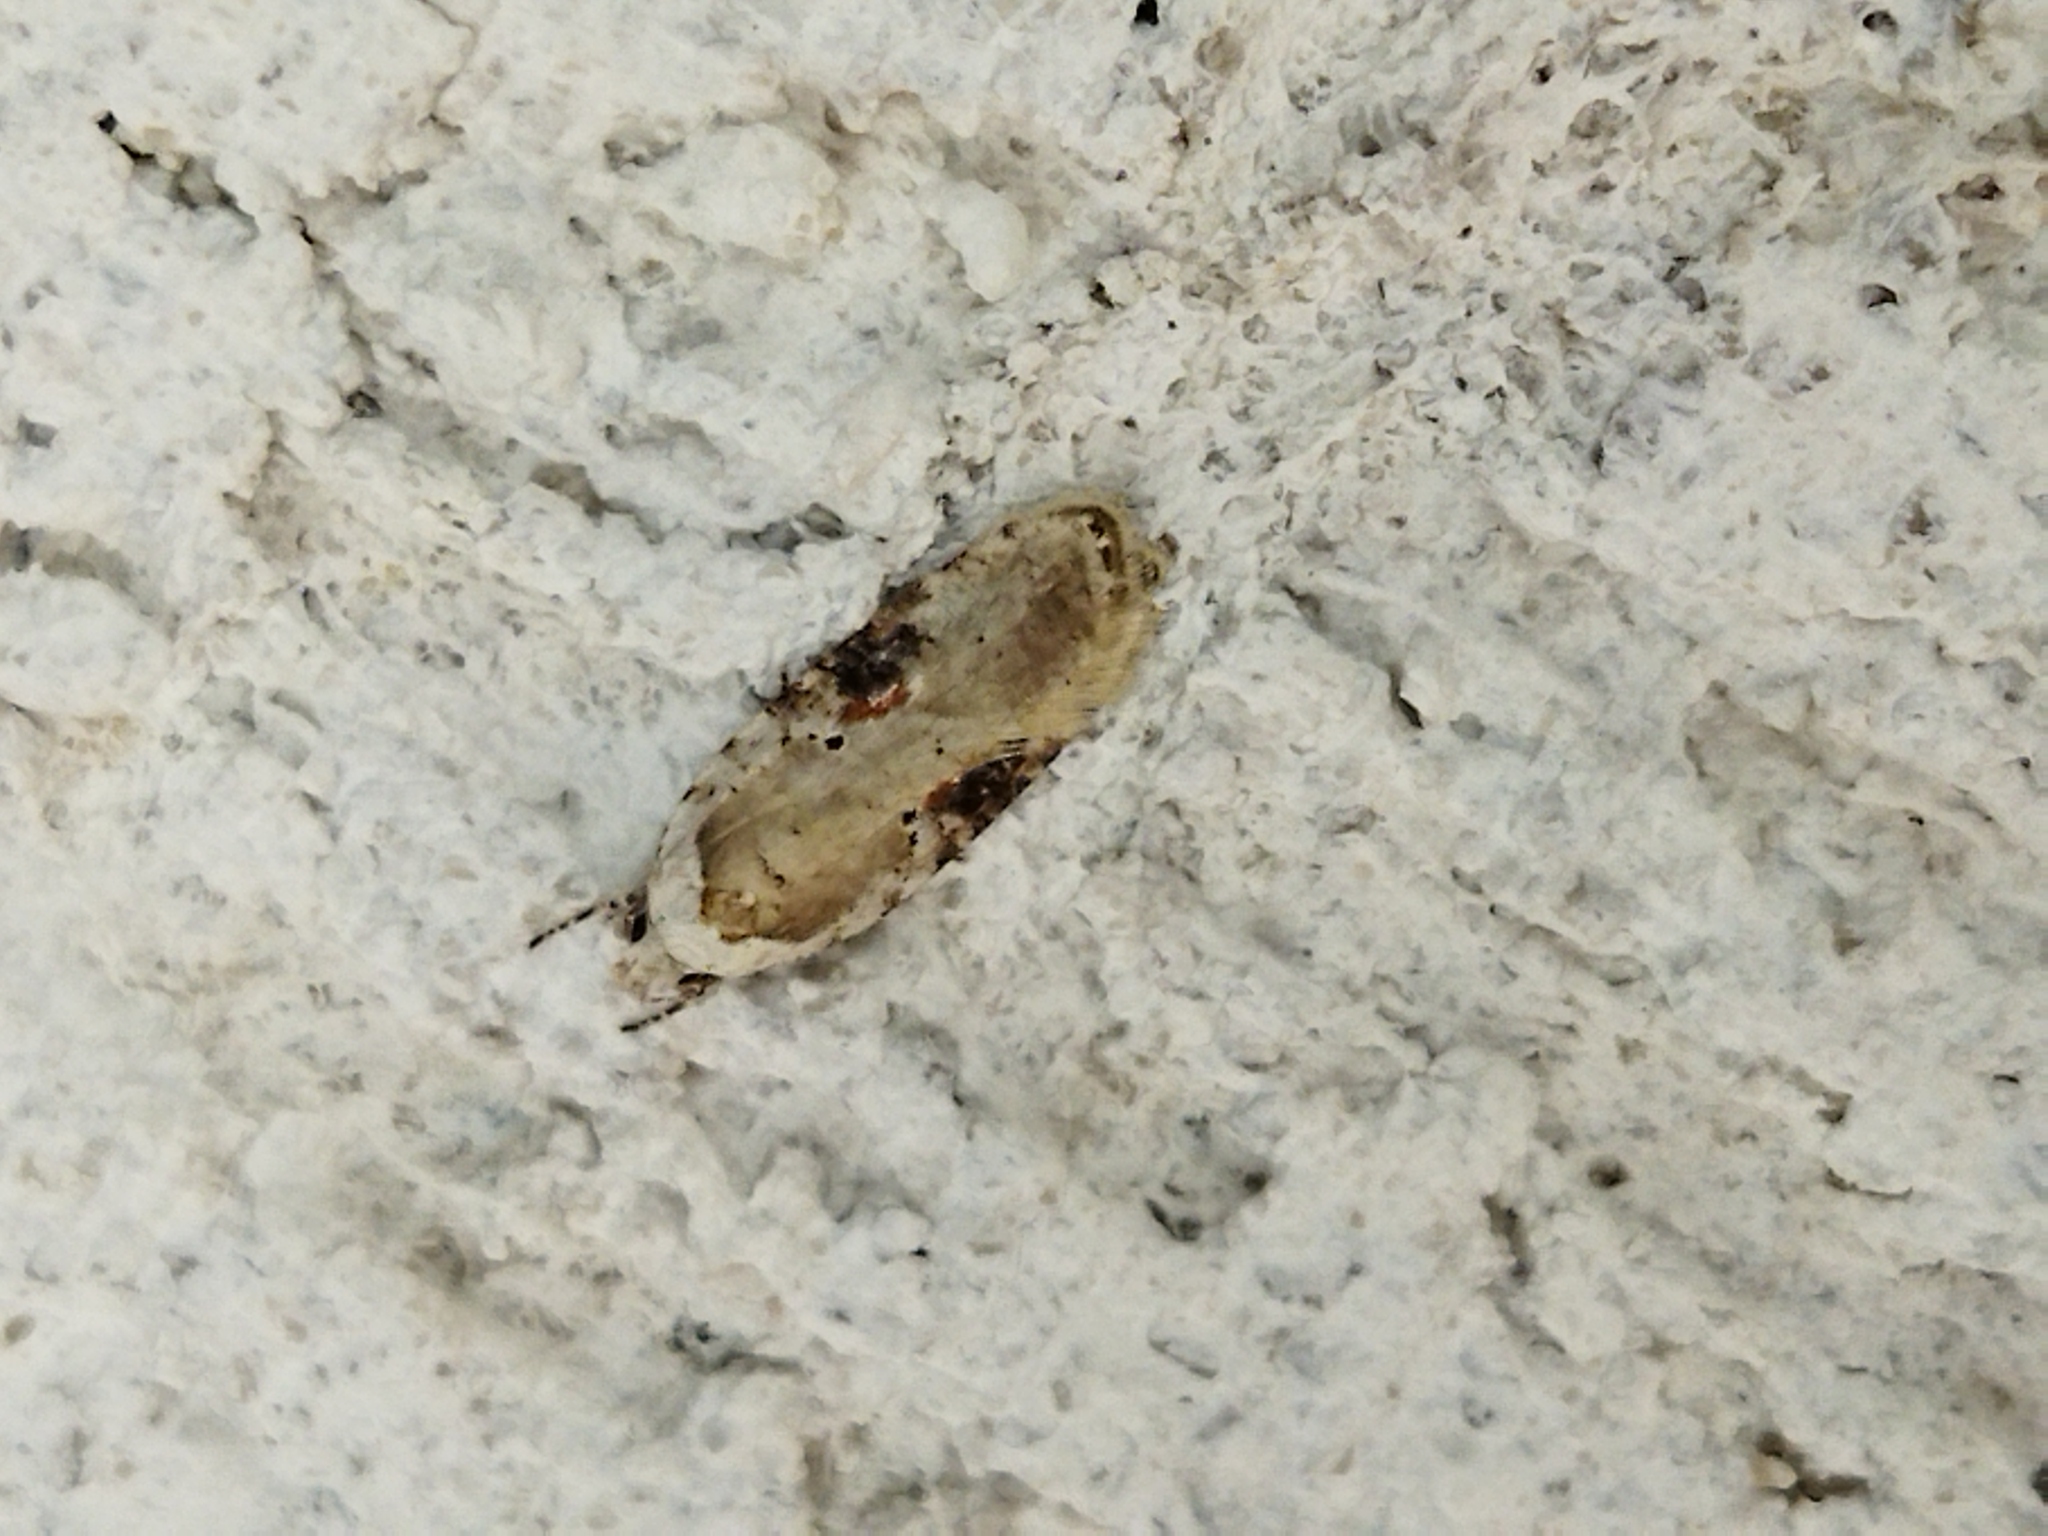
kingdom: Animalia
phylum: Arthropoda
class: Insecta
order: Lepidoptera
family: Depressariidae
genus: Agonopterix
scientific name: Agonopterix alstroemeriana
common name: Moth
